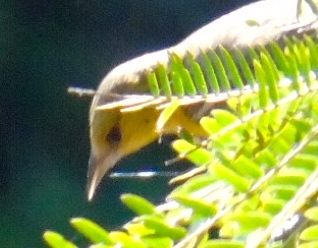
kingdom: Animalia
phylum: Chordata
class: Aves
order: Passeriformes
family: Icteridae
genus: Icterus
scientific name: Icterus
